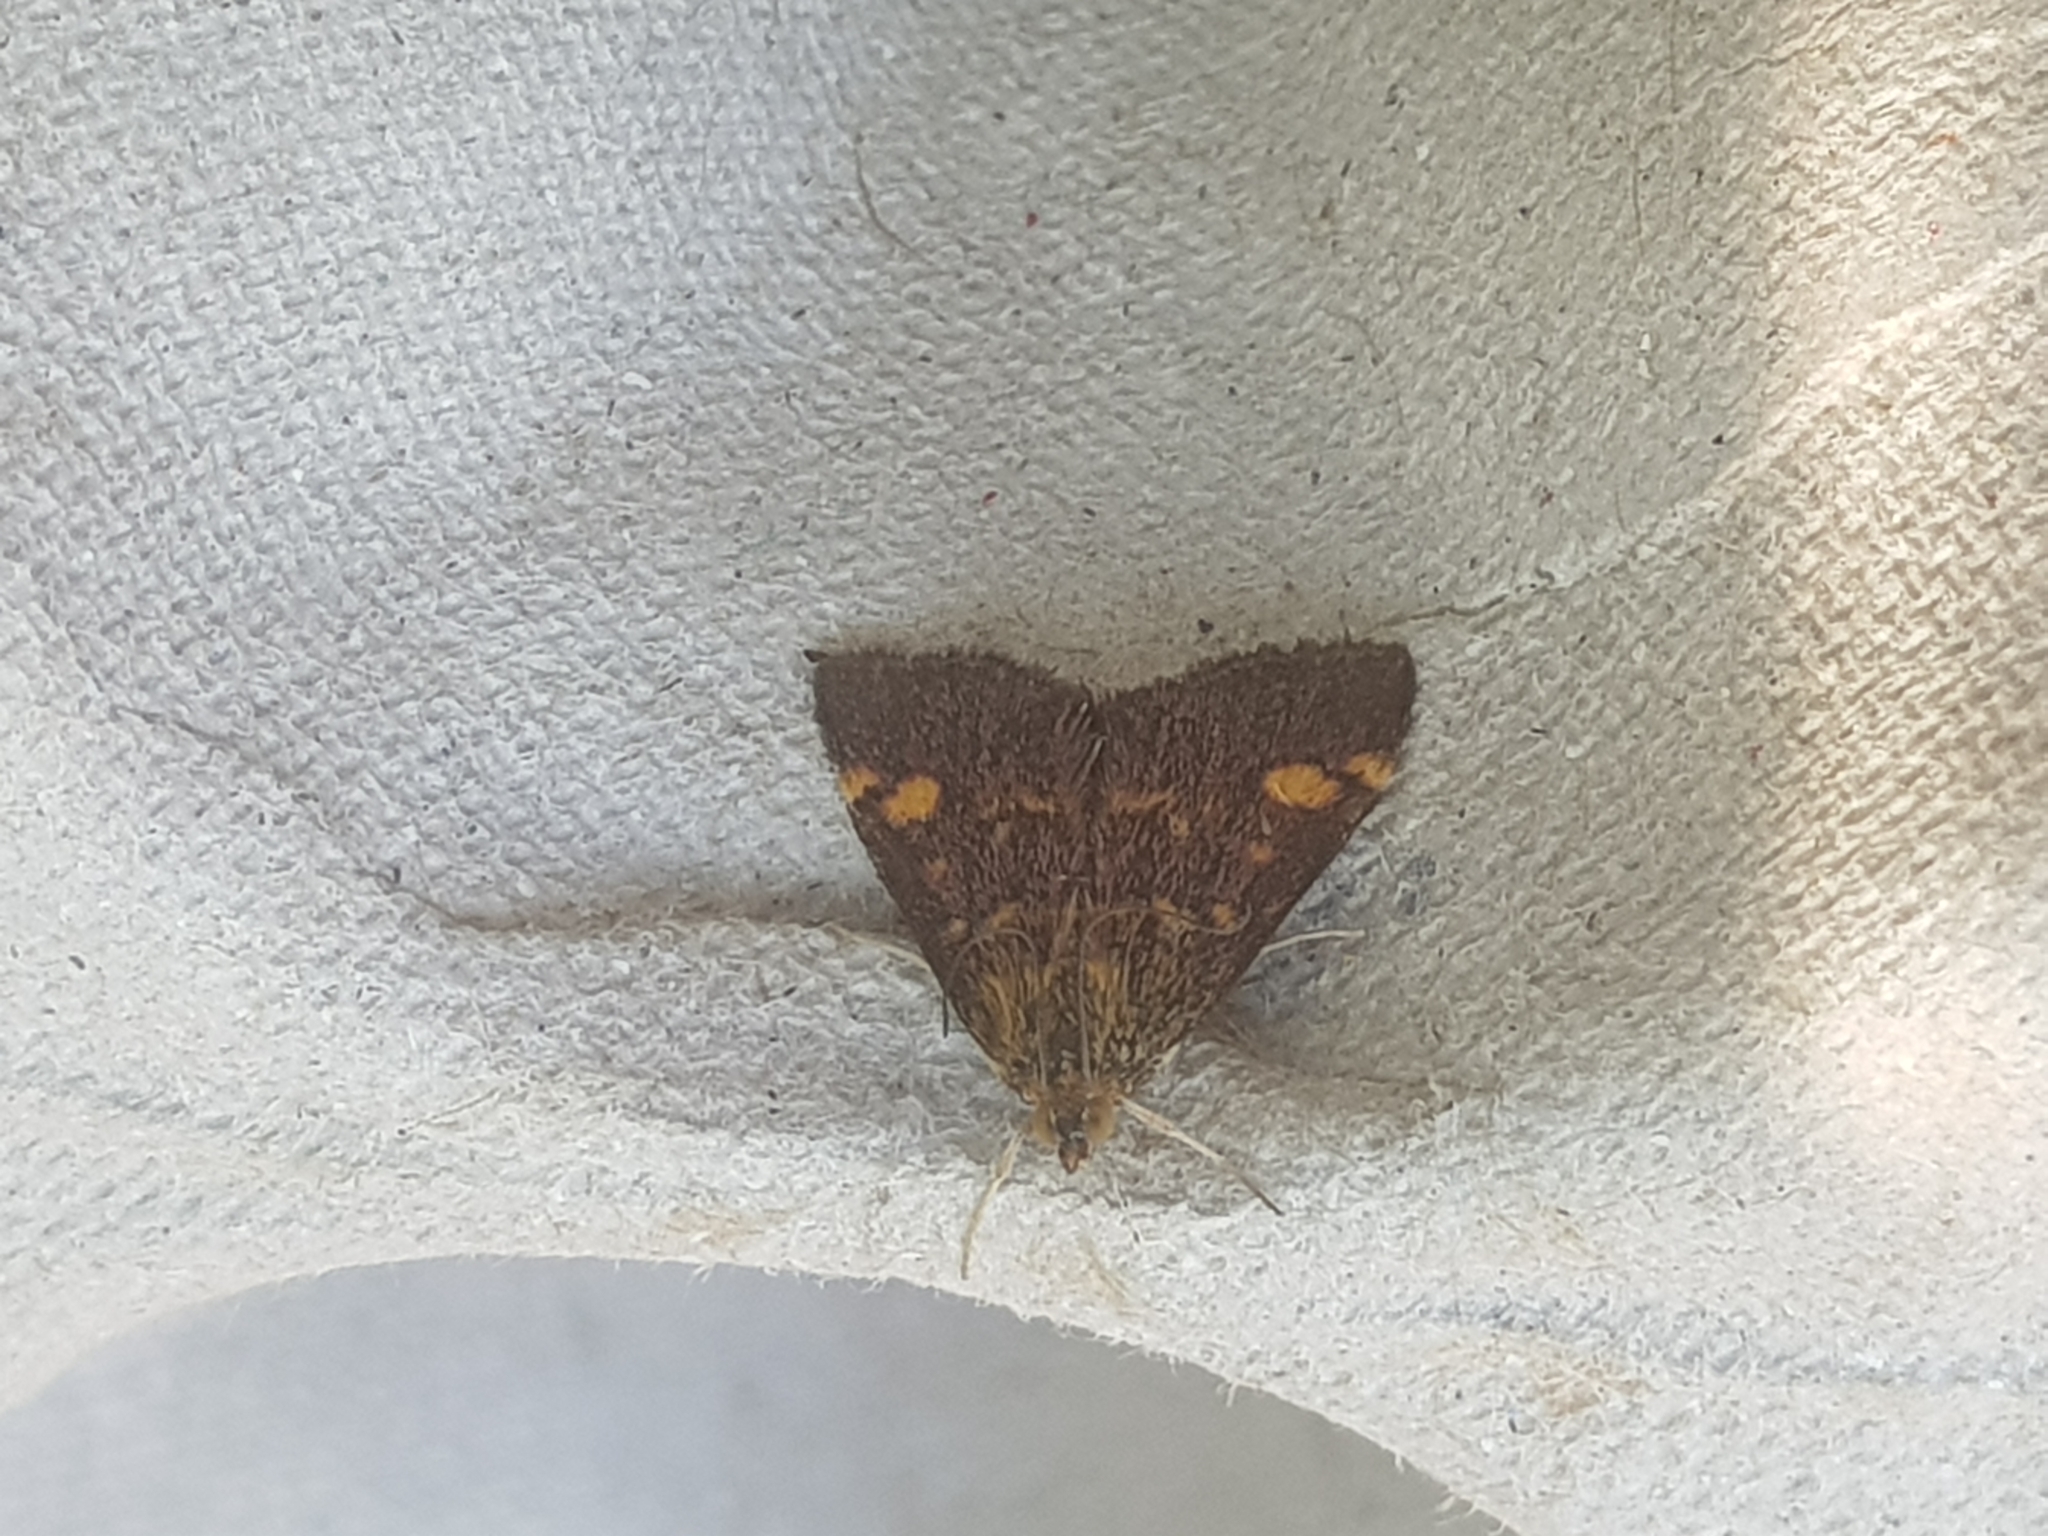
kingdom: Animalia
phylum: Arthropoda
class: Insecta
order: Lepidoptera
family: Crambidae
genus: Pyrausta
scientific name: Pyrausta aurata
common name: Small purple & gold
